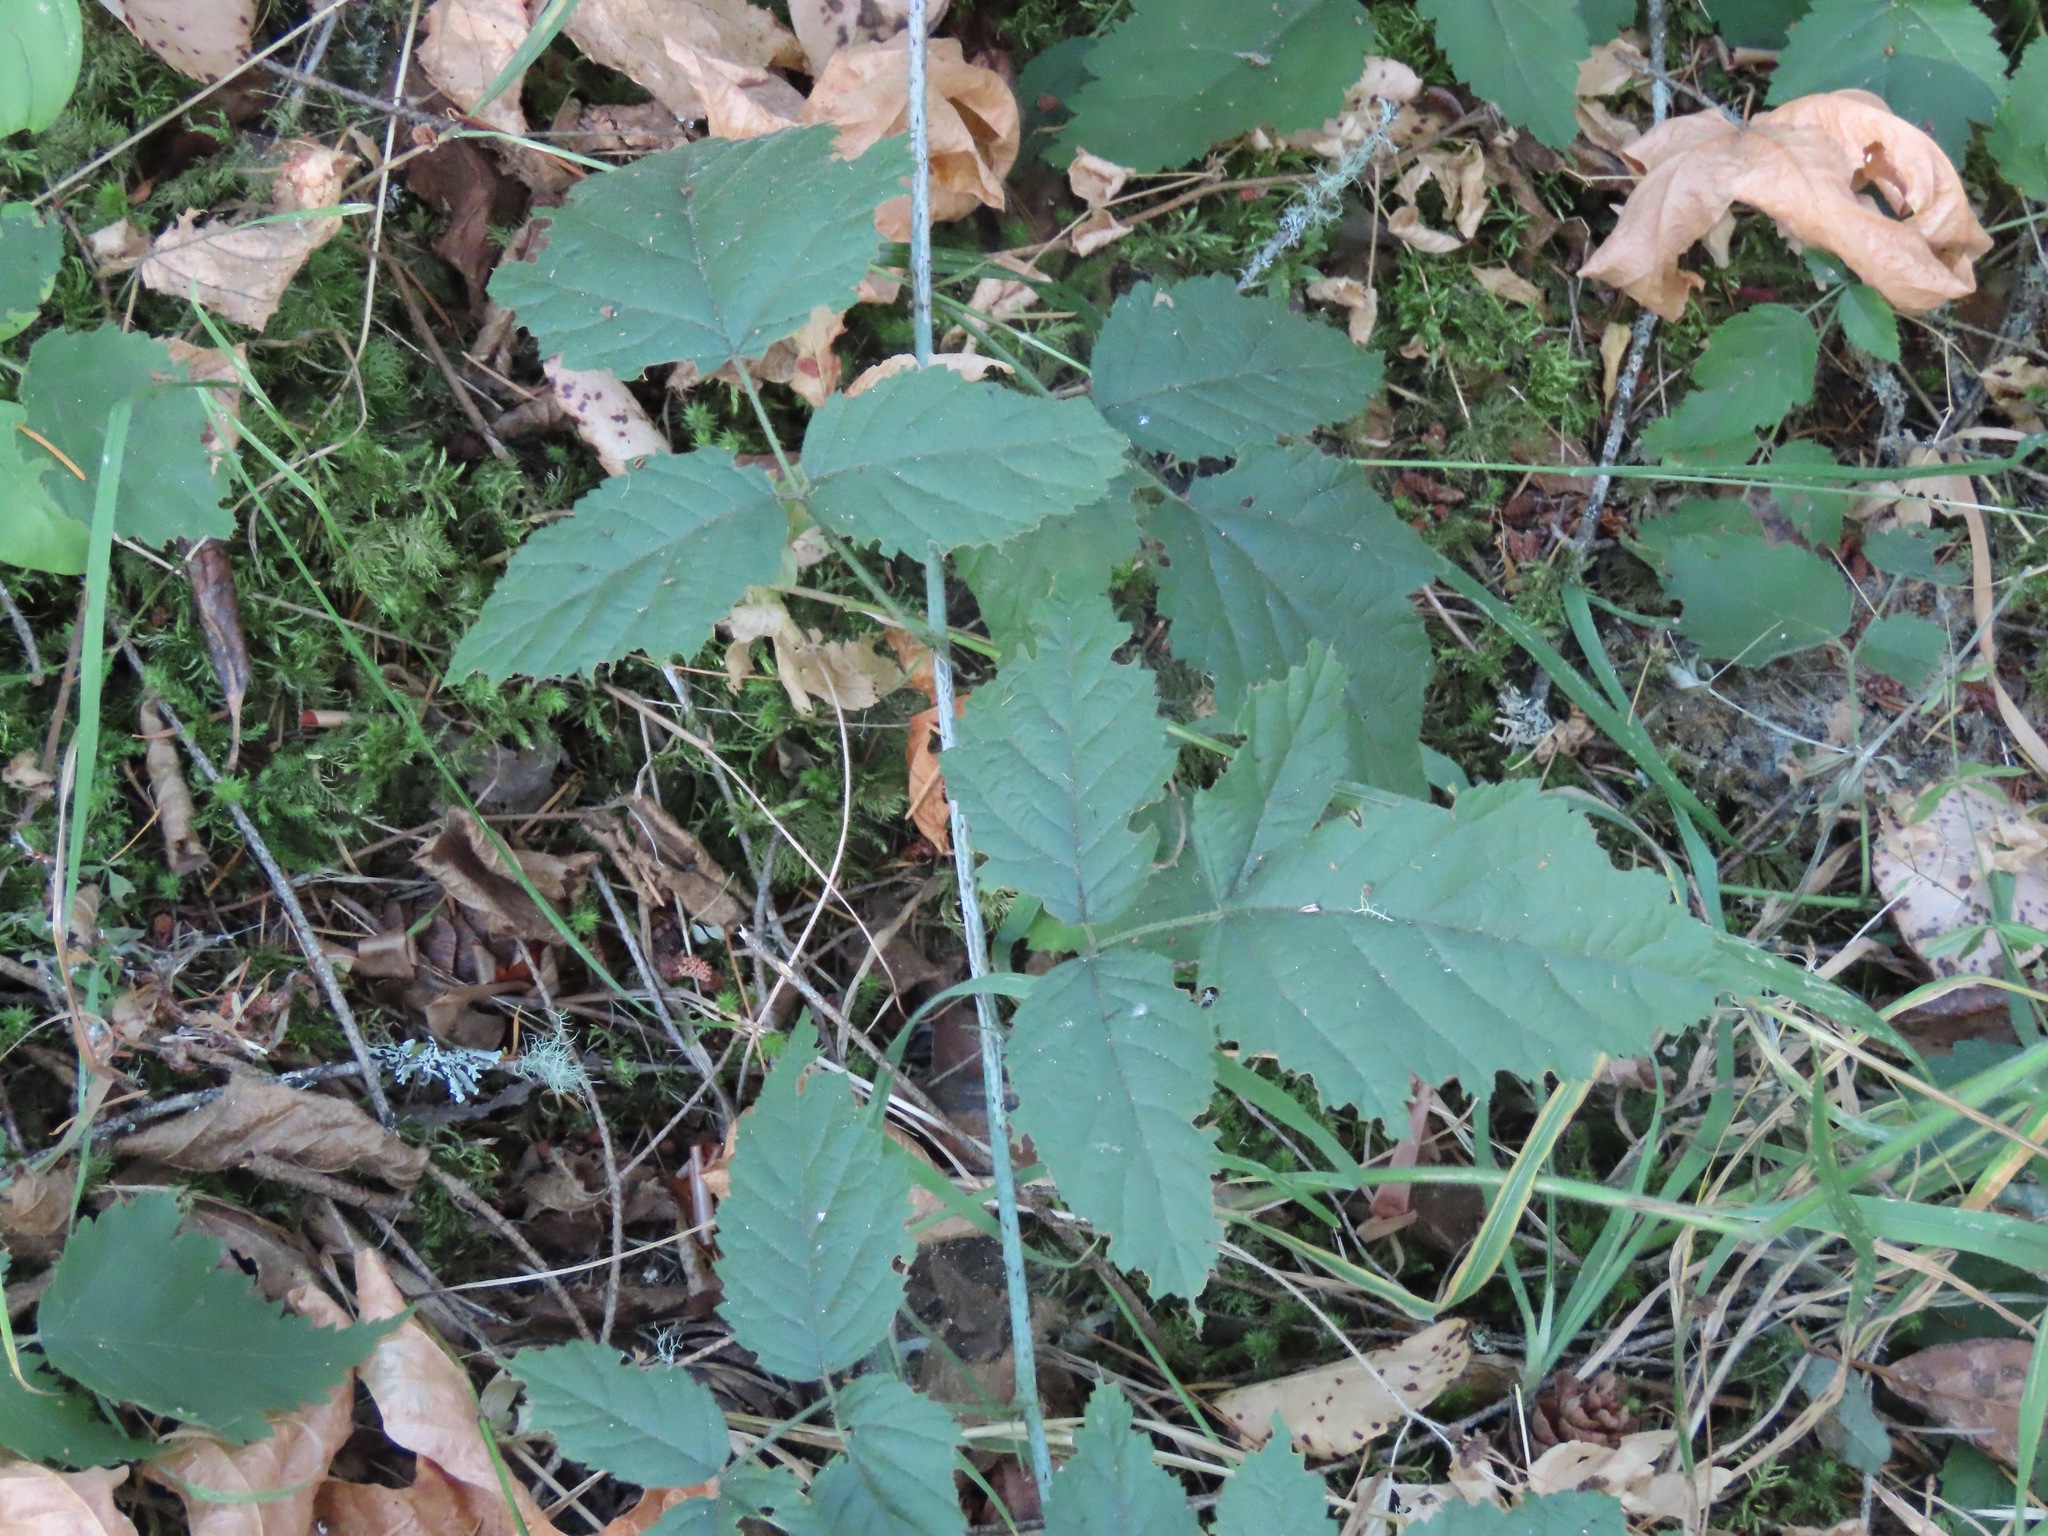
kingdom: Plantae
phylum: Tracheophyta
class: Magnoliopsida
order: Rosales
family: Rosaceae
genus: Rubus
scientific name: Rubus ursinus
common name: Pacific blackberry
